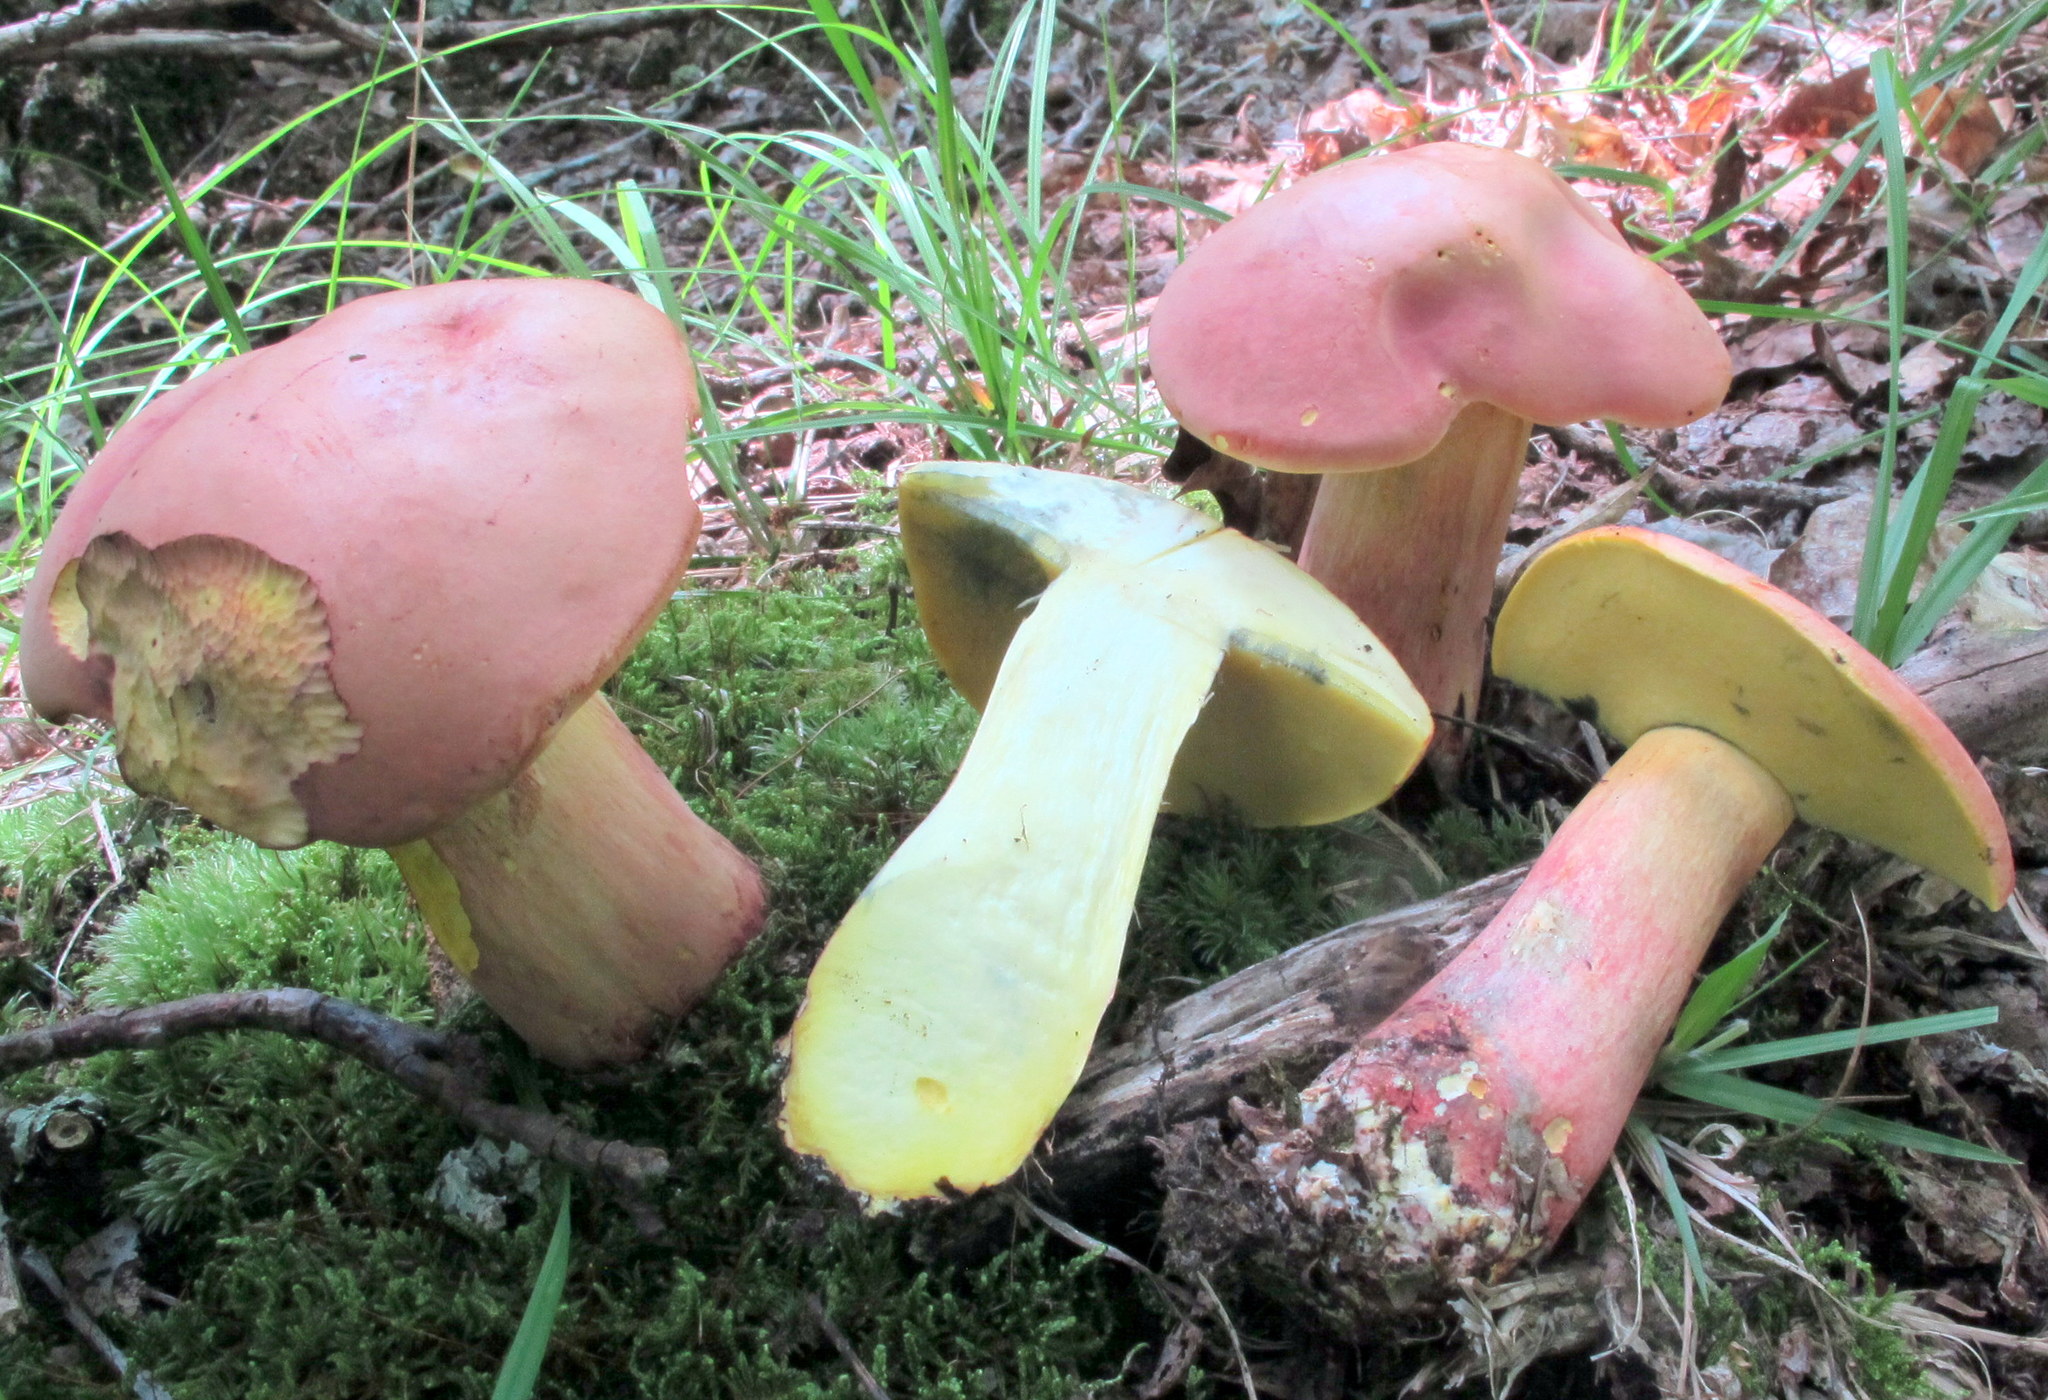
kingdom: Fungi
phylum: Basidiomycota
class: Agaricomycetes
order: Boletales
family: Boletaceae
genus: Lanmaoa
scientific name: Lanmaoa pallidorosea
